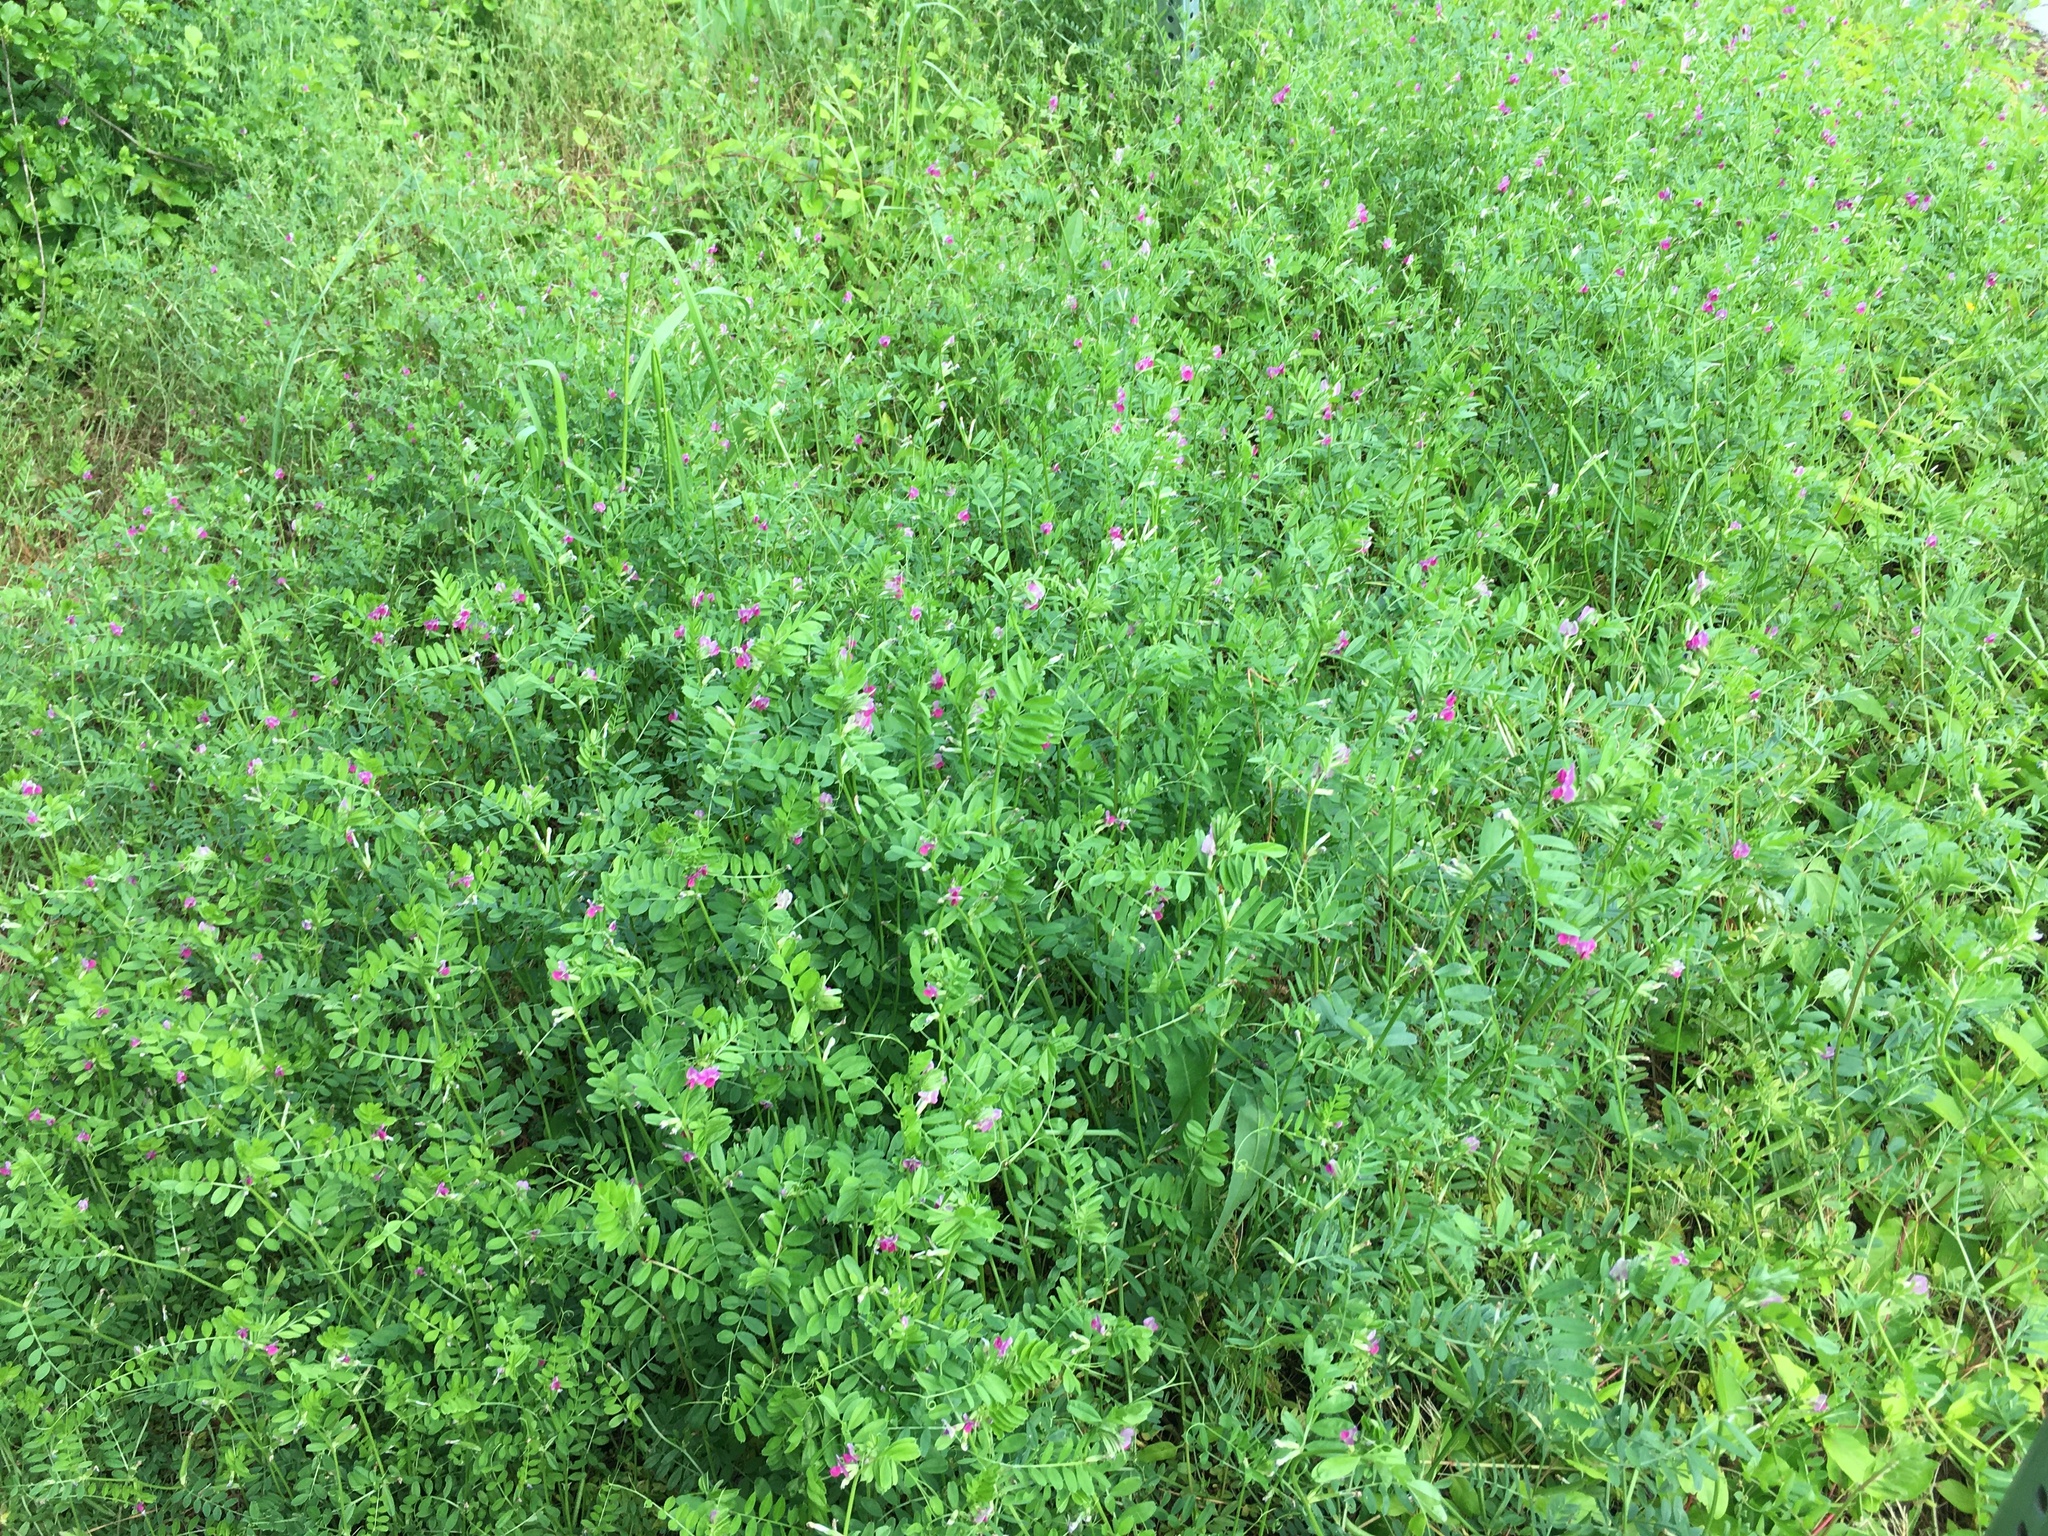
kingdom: Plantae
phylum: Tracheophyta
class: Magnoliopsida
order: Fabales
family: Fabaceae
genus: Vicia
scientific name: Vicia sativa
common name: Garden vetch
